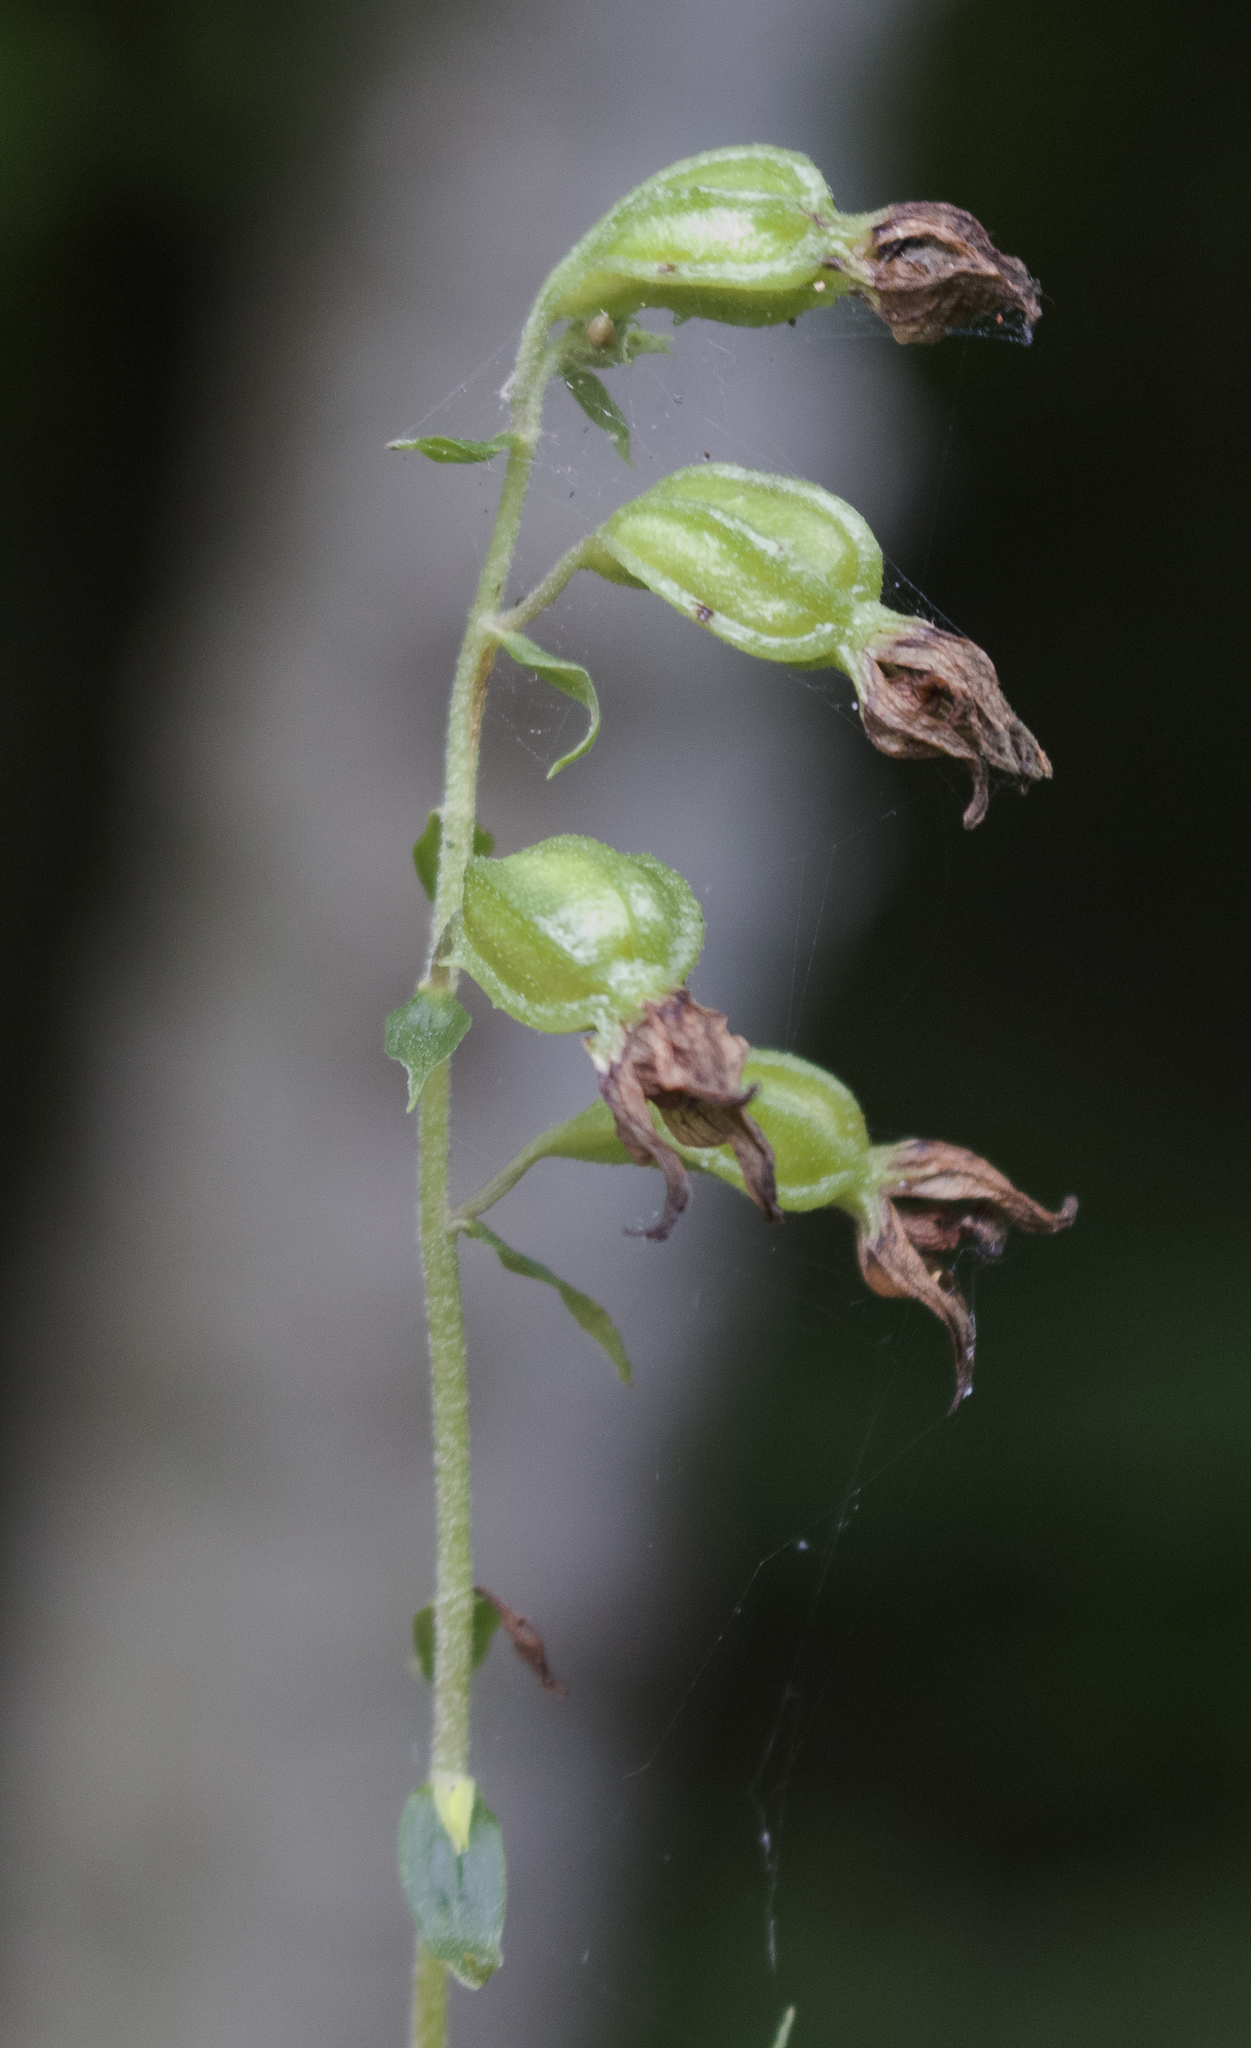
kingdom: Plantae
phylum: Tracheophyta
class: Liliopsida
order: Asparagales
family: Orchidaceae
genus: Epipactis
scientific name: Epipactis helleborine
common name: Broad-leaved helleborine
